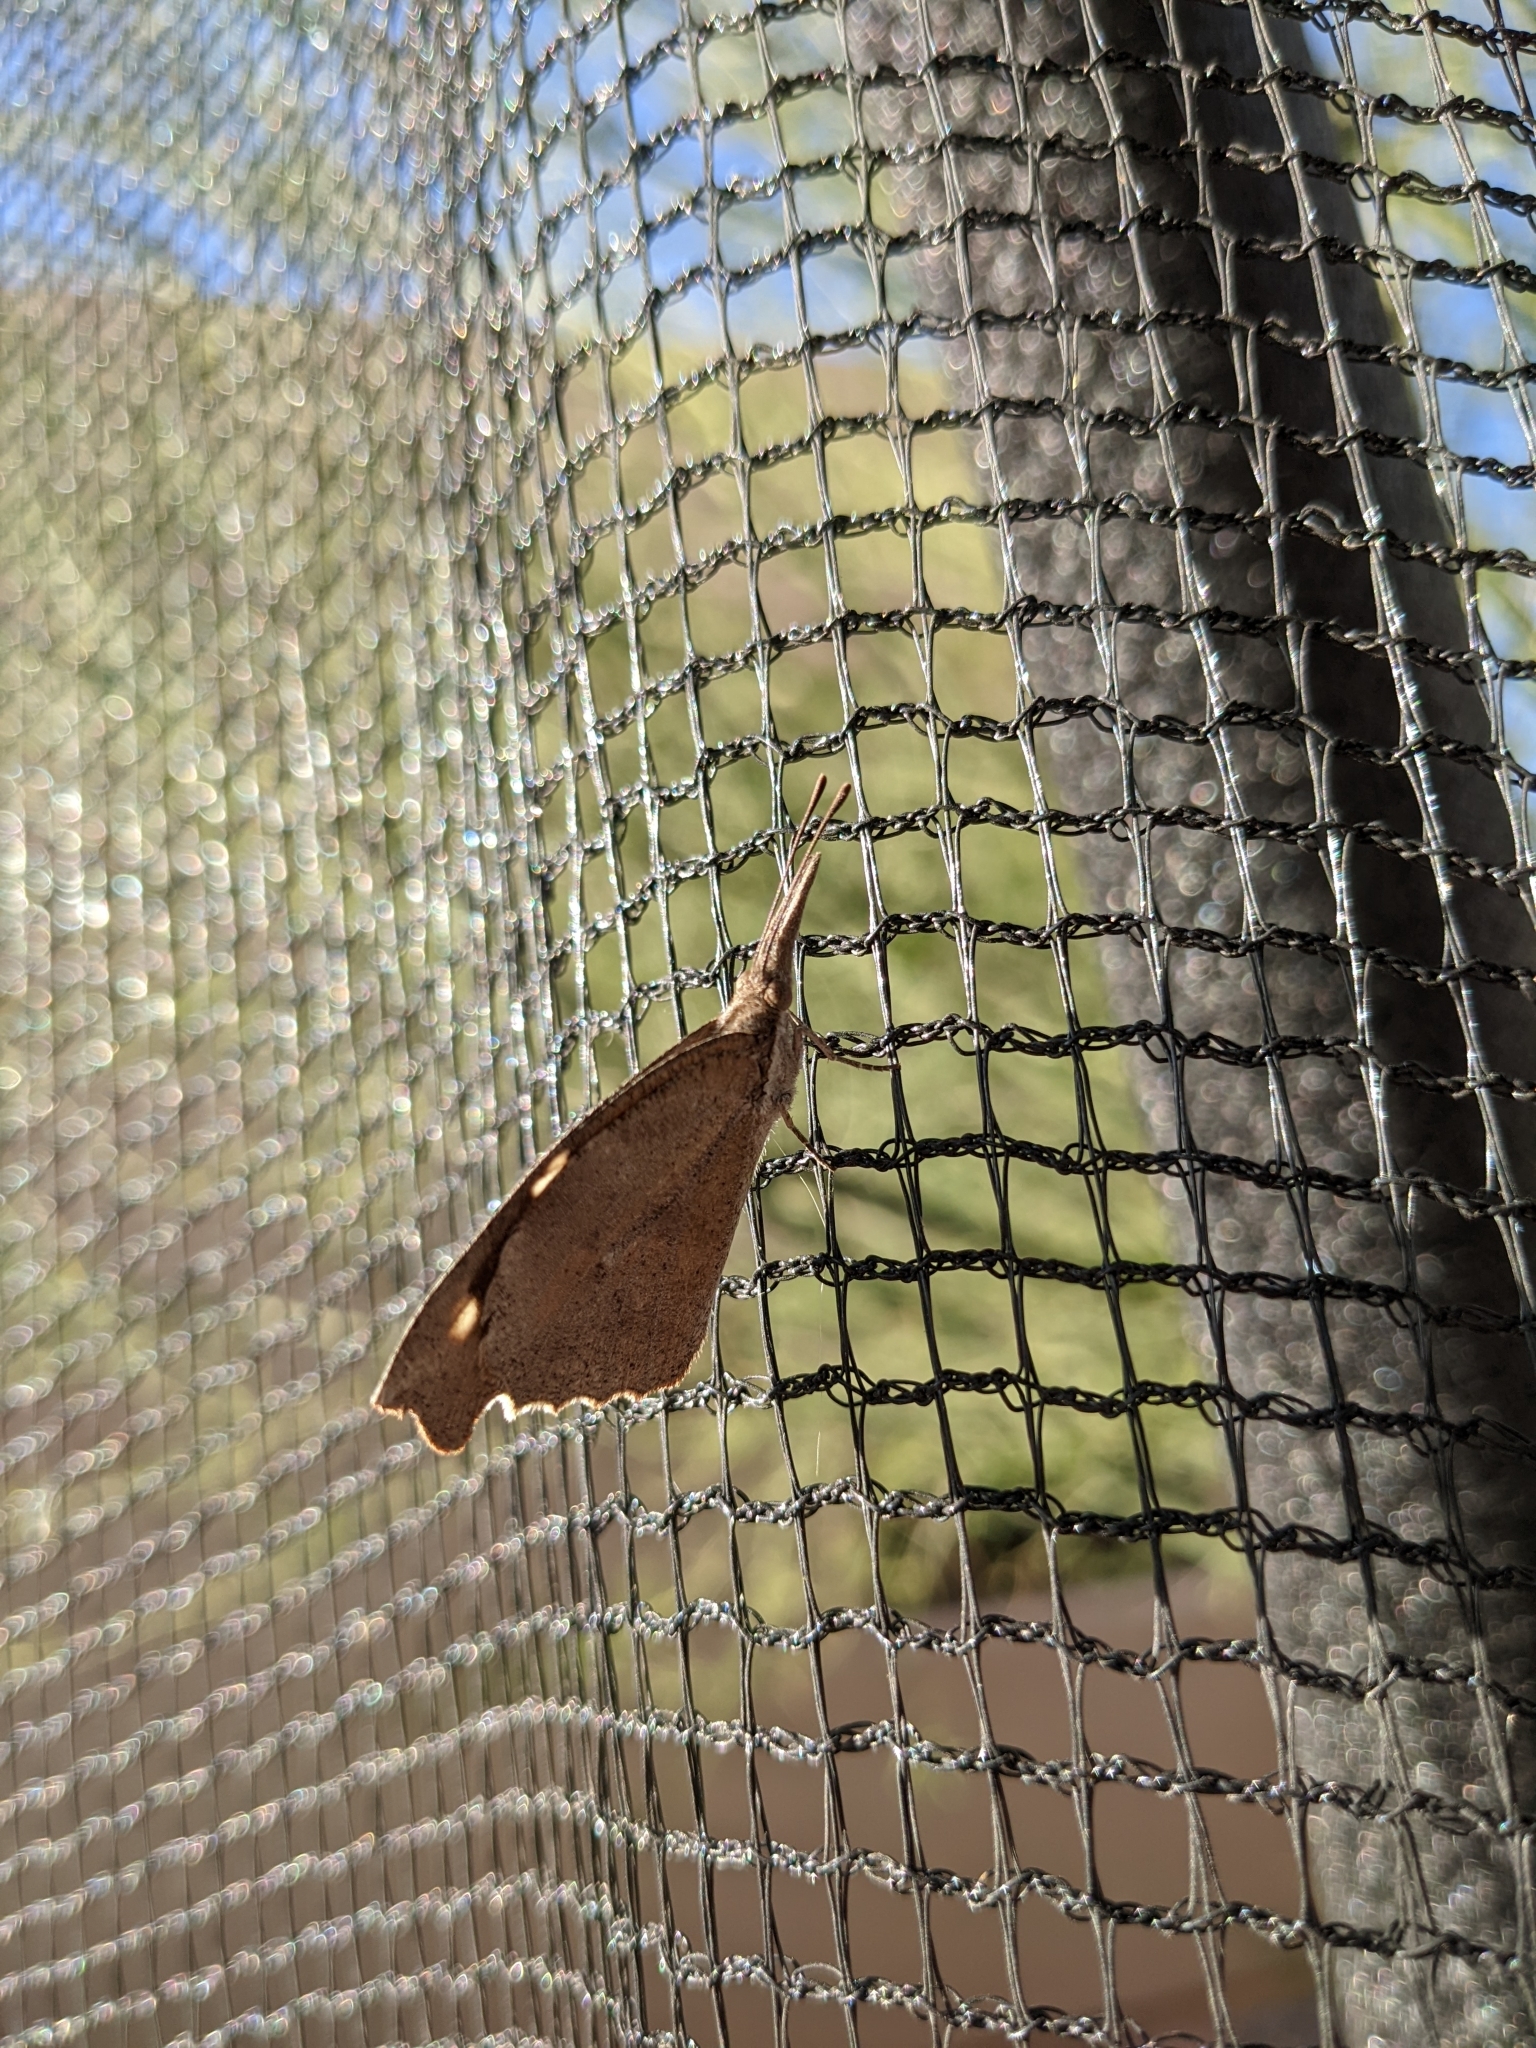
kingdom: Animalia
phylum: Arthropoda
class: Insecta
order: Lepidoptera
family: Nymphalidae
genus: Libytheana
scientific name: Libytheana carinenta
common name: American snout
